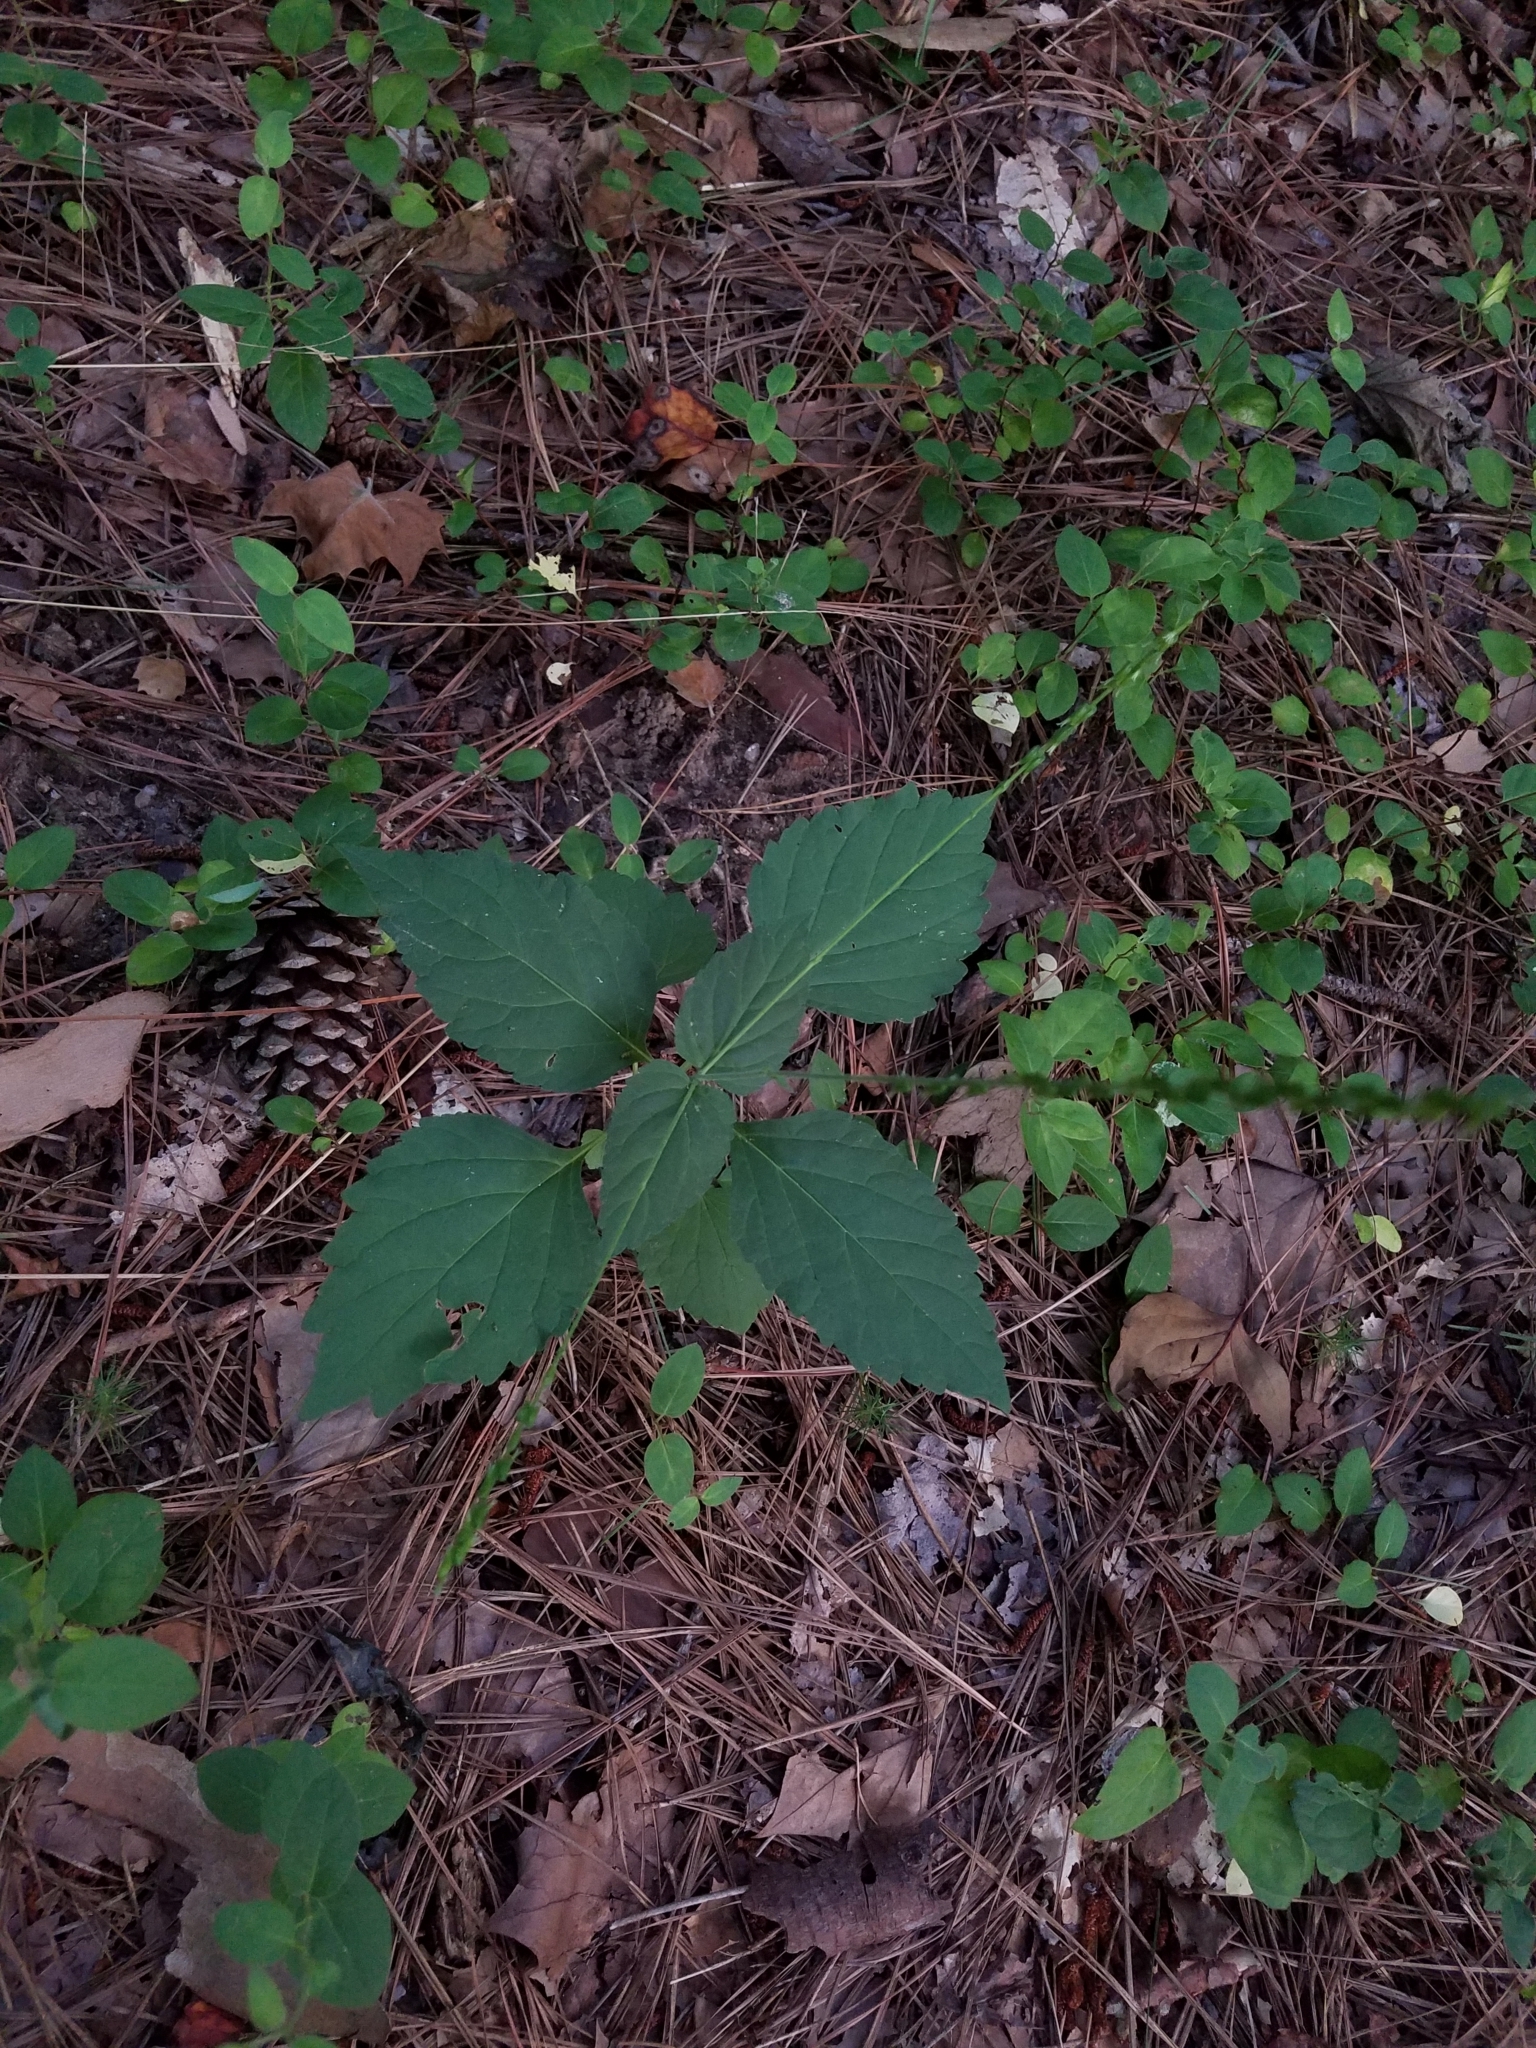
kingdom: Plantae
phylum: Tracheophyta
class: Magnoliopsida
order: Lamiales
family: Phrymaceae
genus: Phryma
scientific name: Phryma leptostachya
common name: American lopseed
